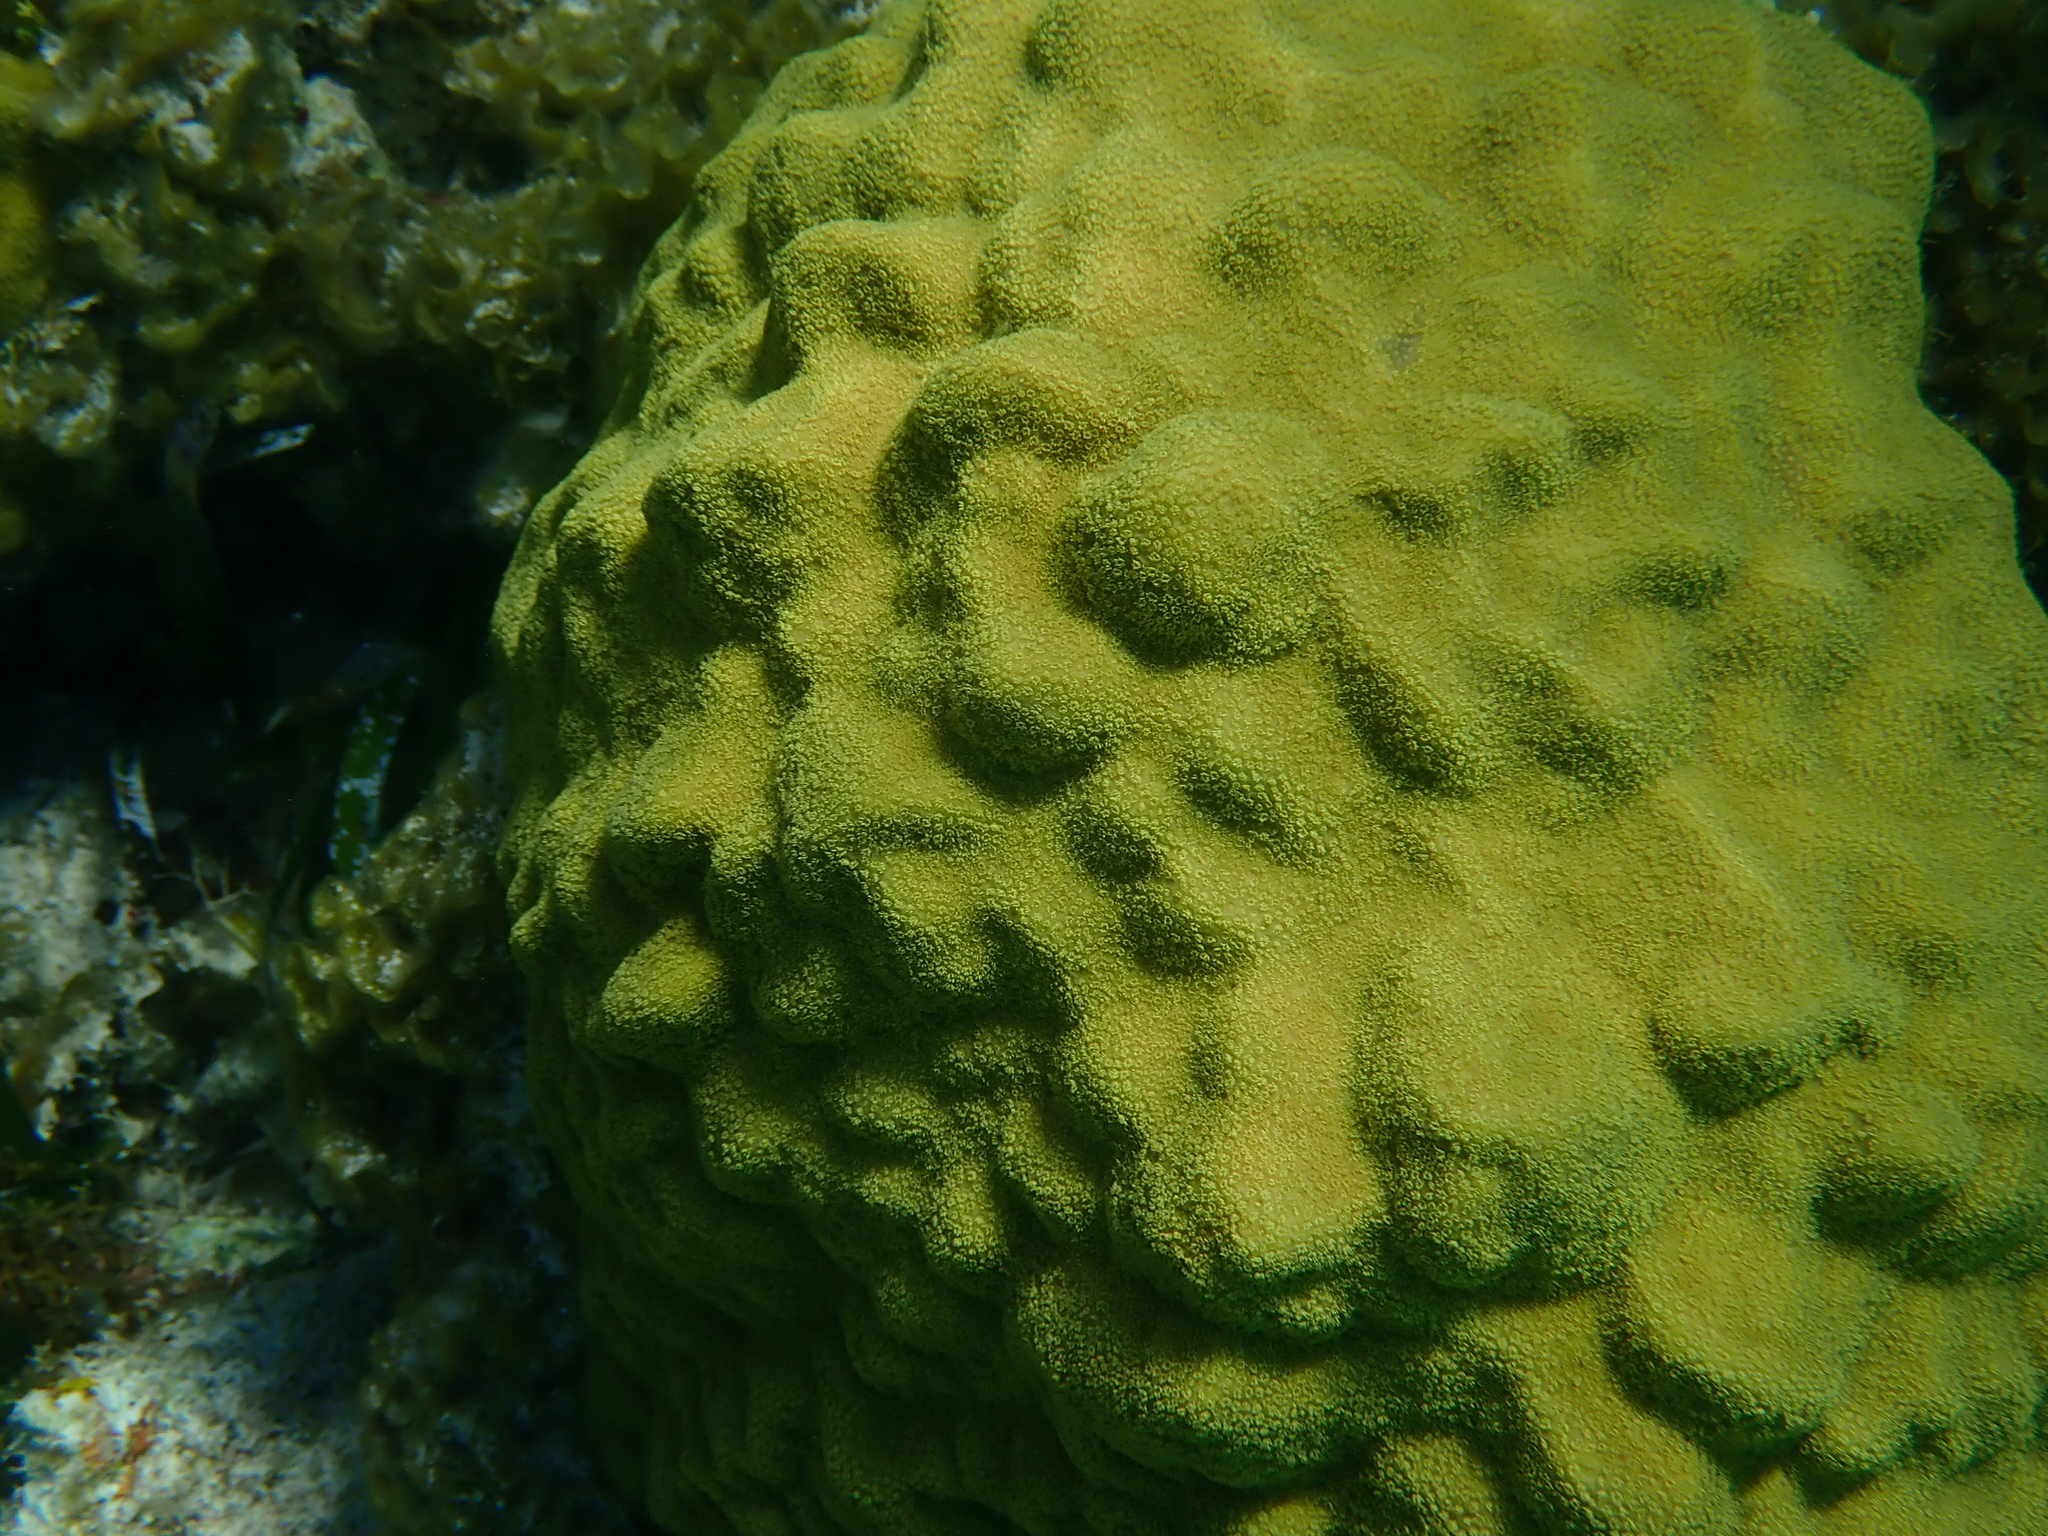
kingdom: Animalia
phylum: Cnidaria
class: Anthozoa
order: Scleractinia
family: Poritidae
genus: Porites
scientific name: Porites astreoides
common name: Mustard hill coral
